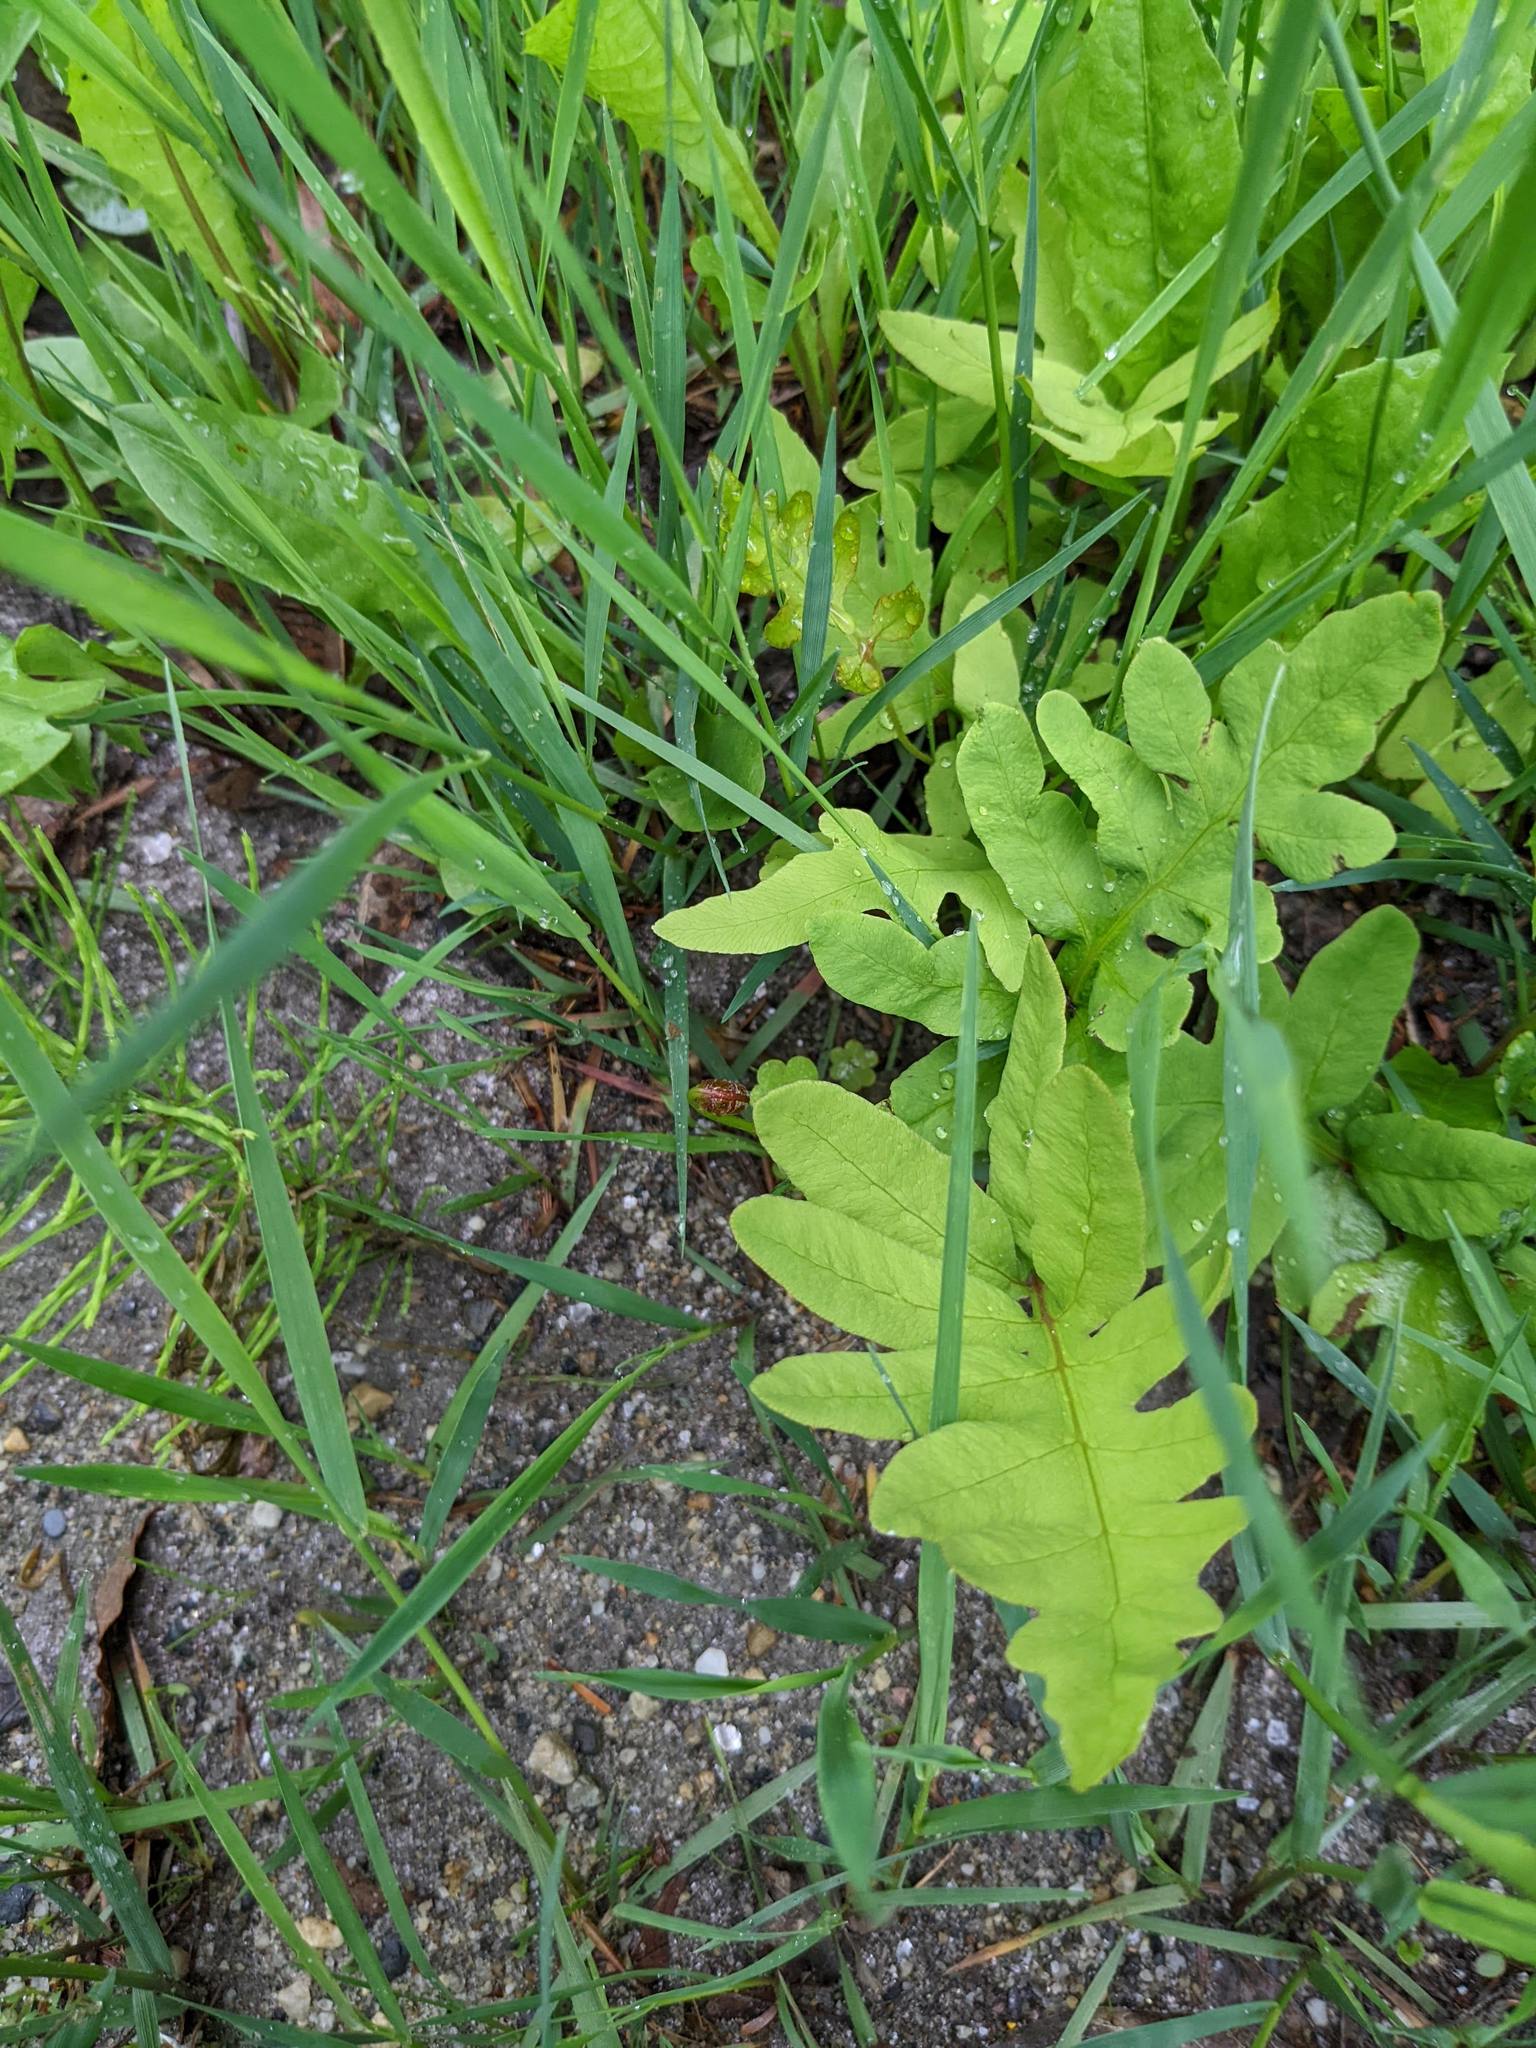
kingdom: Plantae
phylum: Tracheophyta
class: Polypodiopsida
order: Polypodiales
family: Onocleaceae
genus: Onoclea
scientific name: Onoclea sensibilis
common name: Sensitive fern
